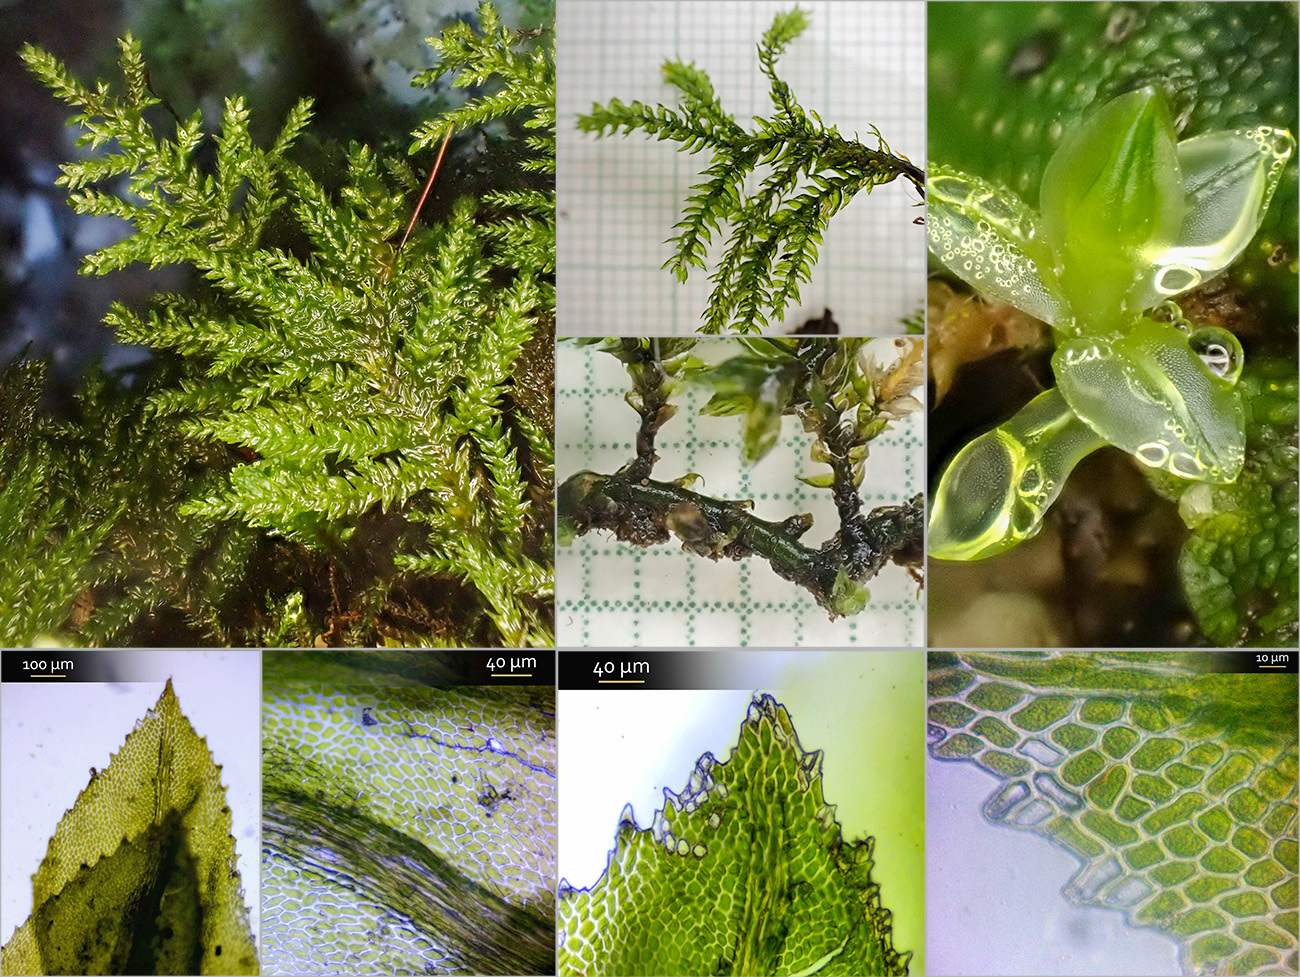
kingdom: Plantae
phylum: Bryophyta
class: Bryopsida
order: Hypnales
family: Neckeraceae
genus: Thamnobryum
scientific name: Thamnobryum alopecurum
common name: Fox-tail feather-moss
